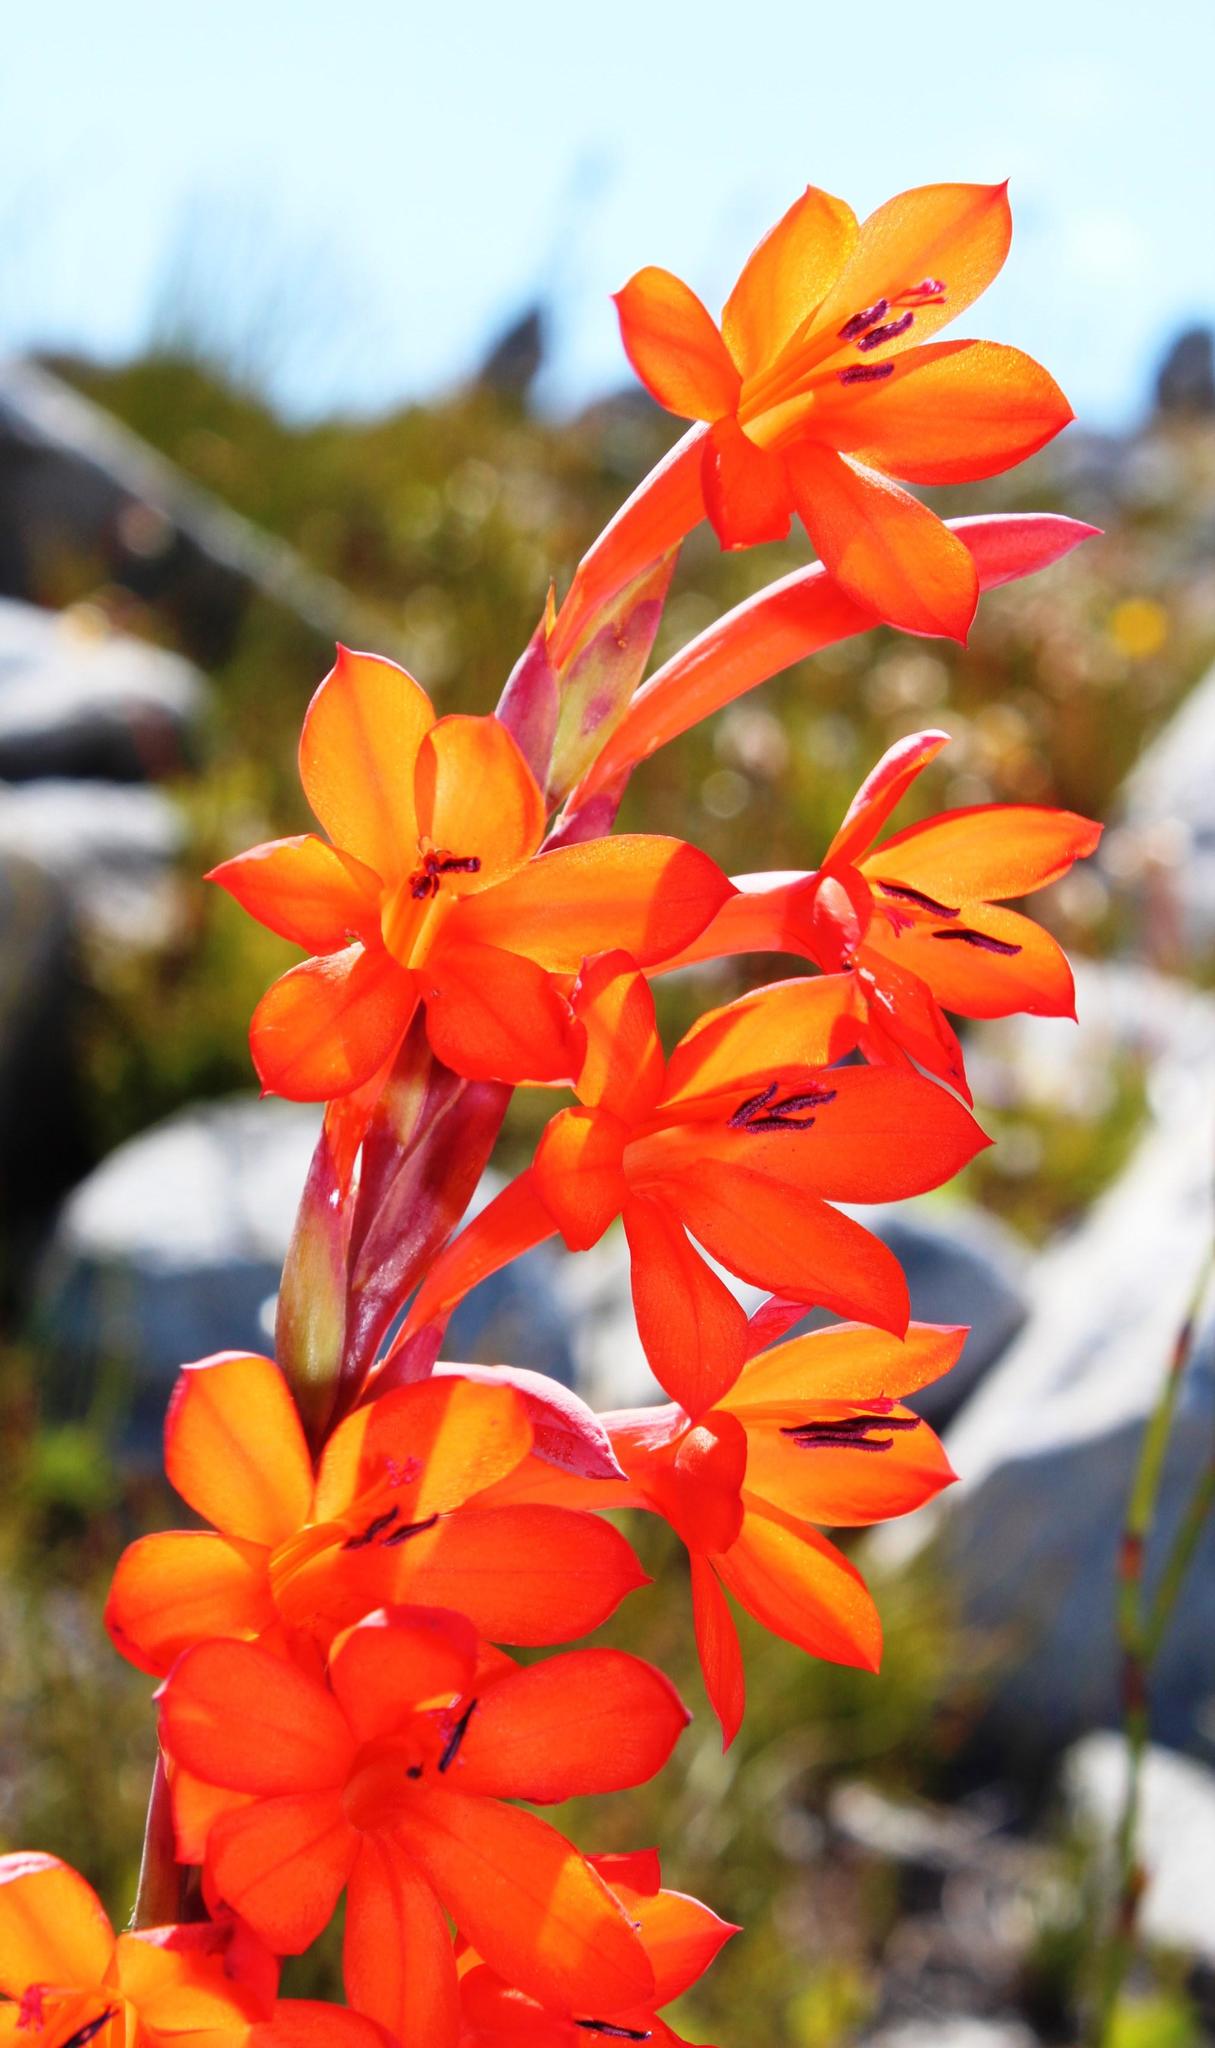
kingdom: Plantae
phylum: Tracheophyta
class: Liliopsida
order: Asparagales
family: Iridaceae
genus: Watsonia
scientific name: Watsonia schlechteri
